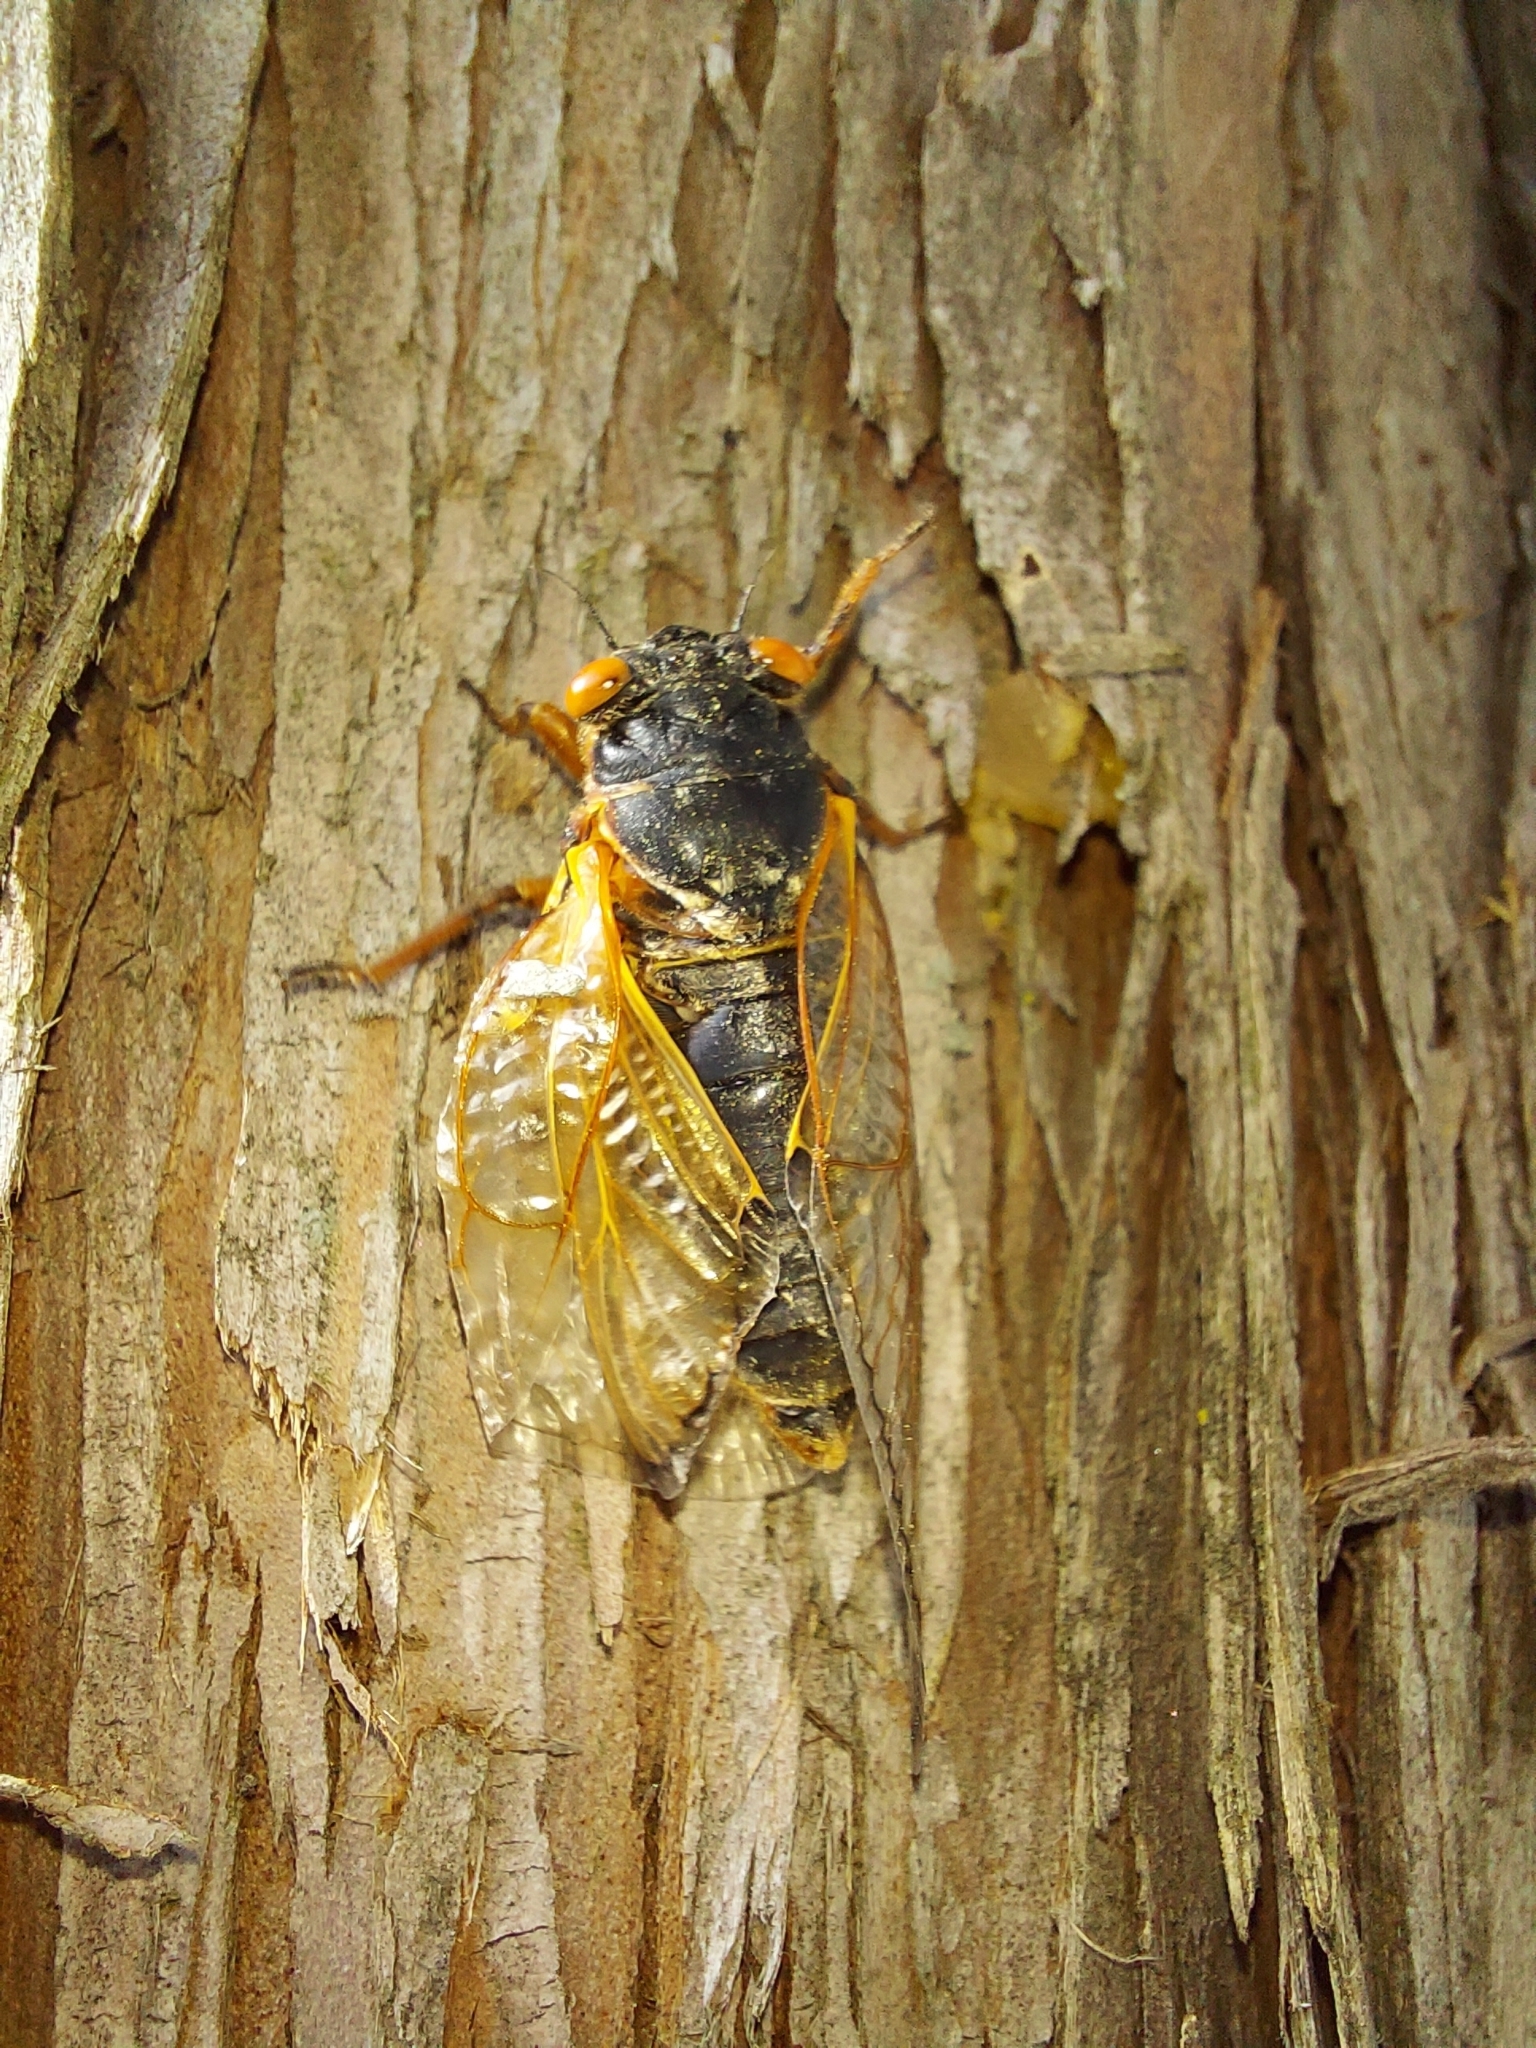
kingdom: Animalia
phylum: Arthropoda
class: Insecta
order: Hemiptera
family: Cicadidae
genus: Magicicada
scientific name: Magicicada septendecim
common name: Periodical cicada
